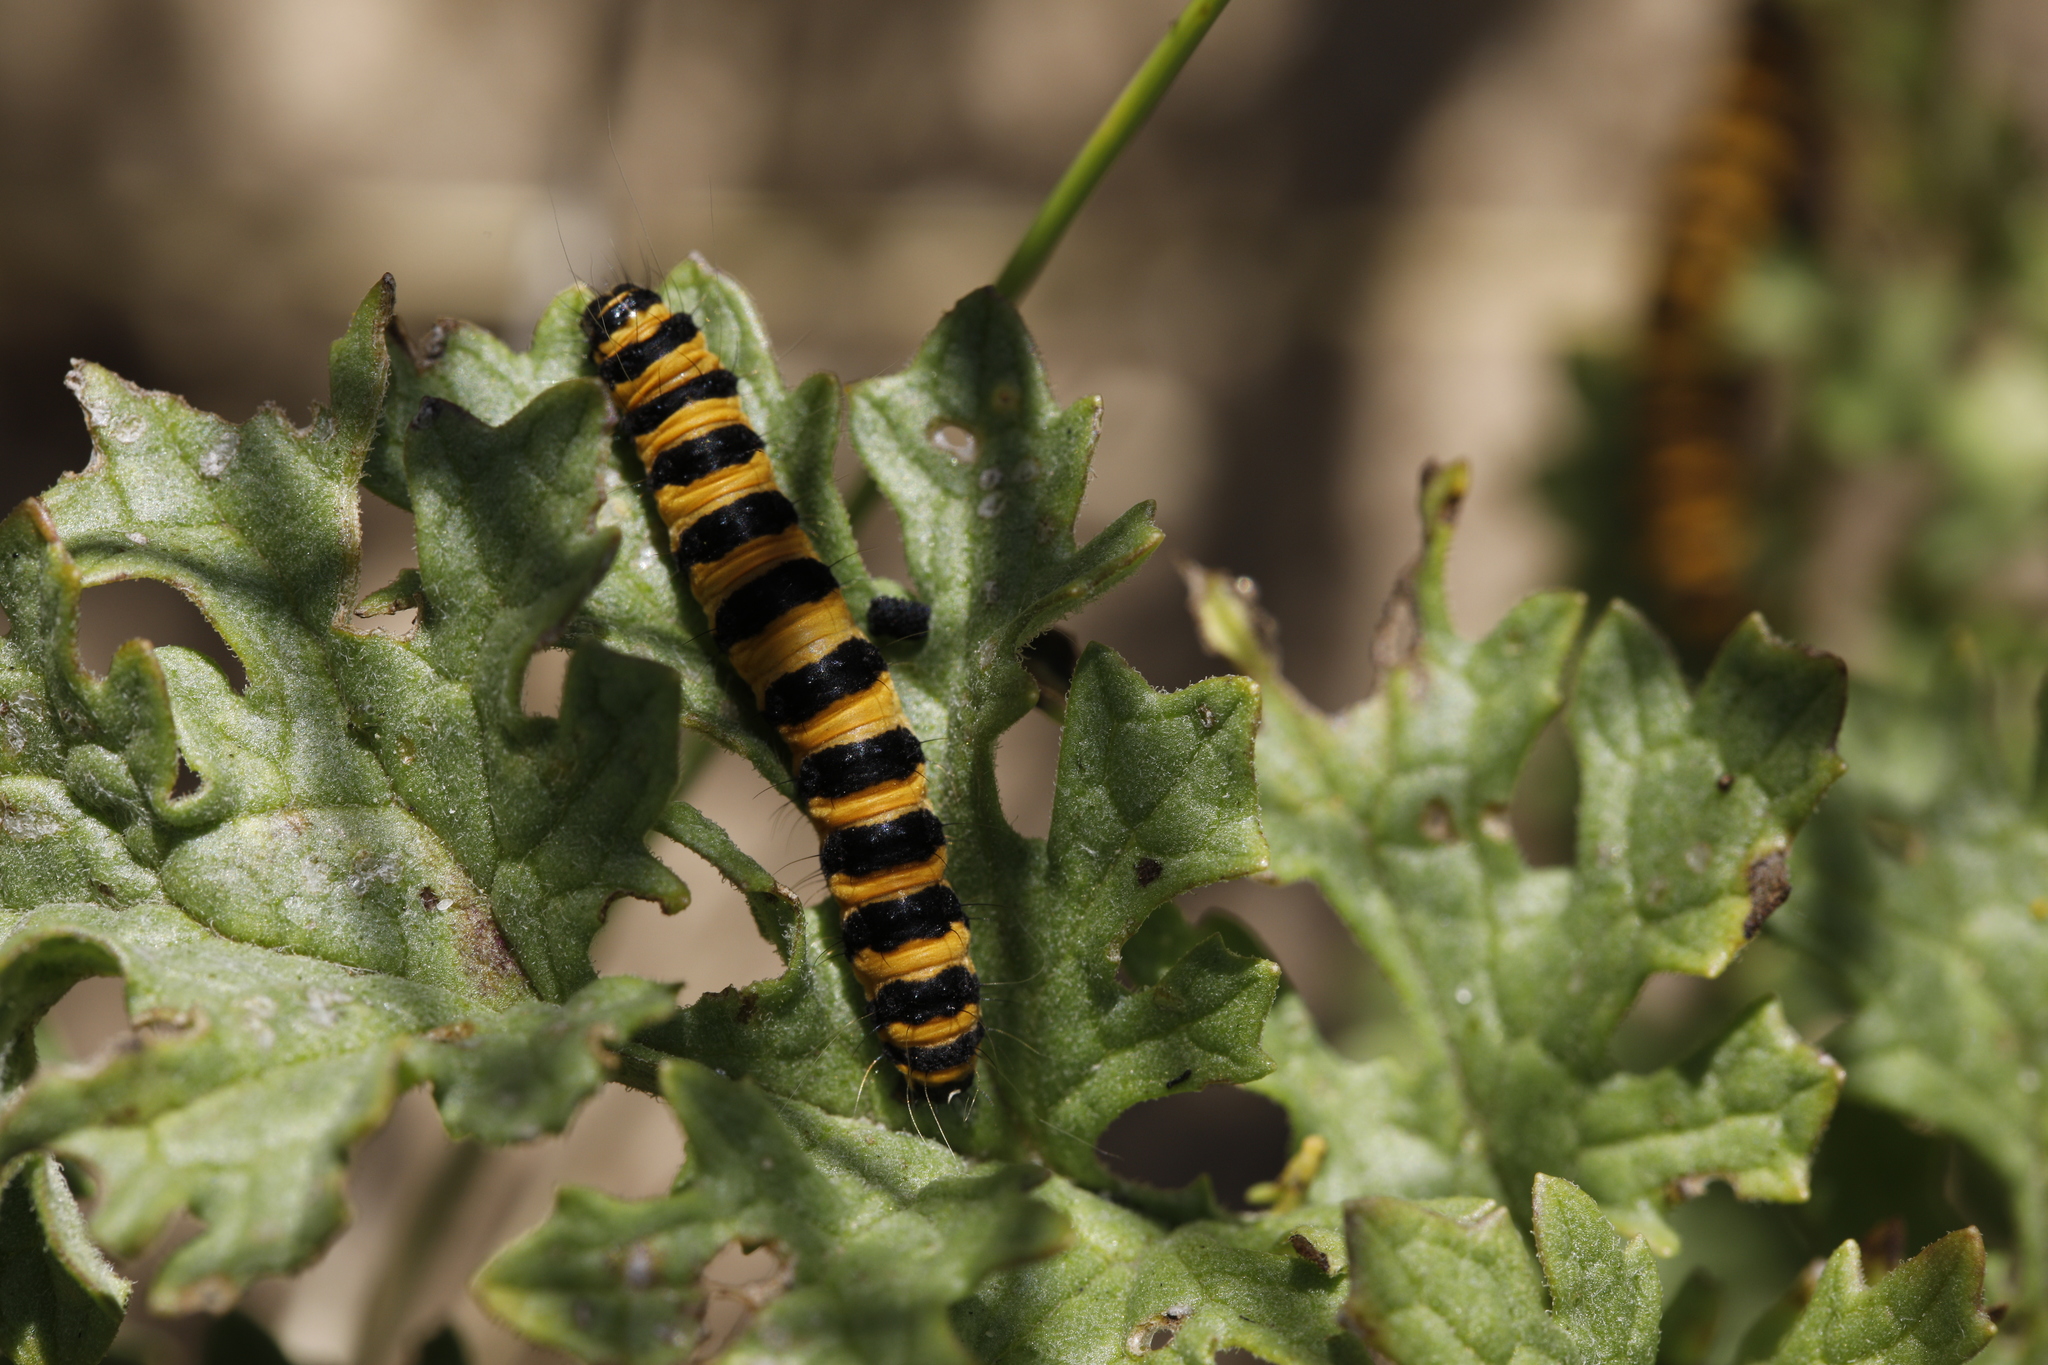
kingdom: Animalia
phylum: Arthropoda
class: Insecta
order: Lepidoptera
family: Erebidae
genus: Tyria
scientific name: Tyria jacobaeae
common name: Cinnabar
